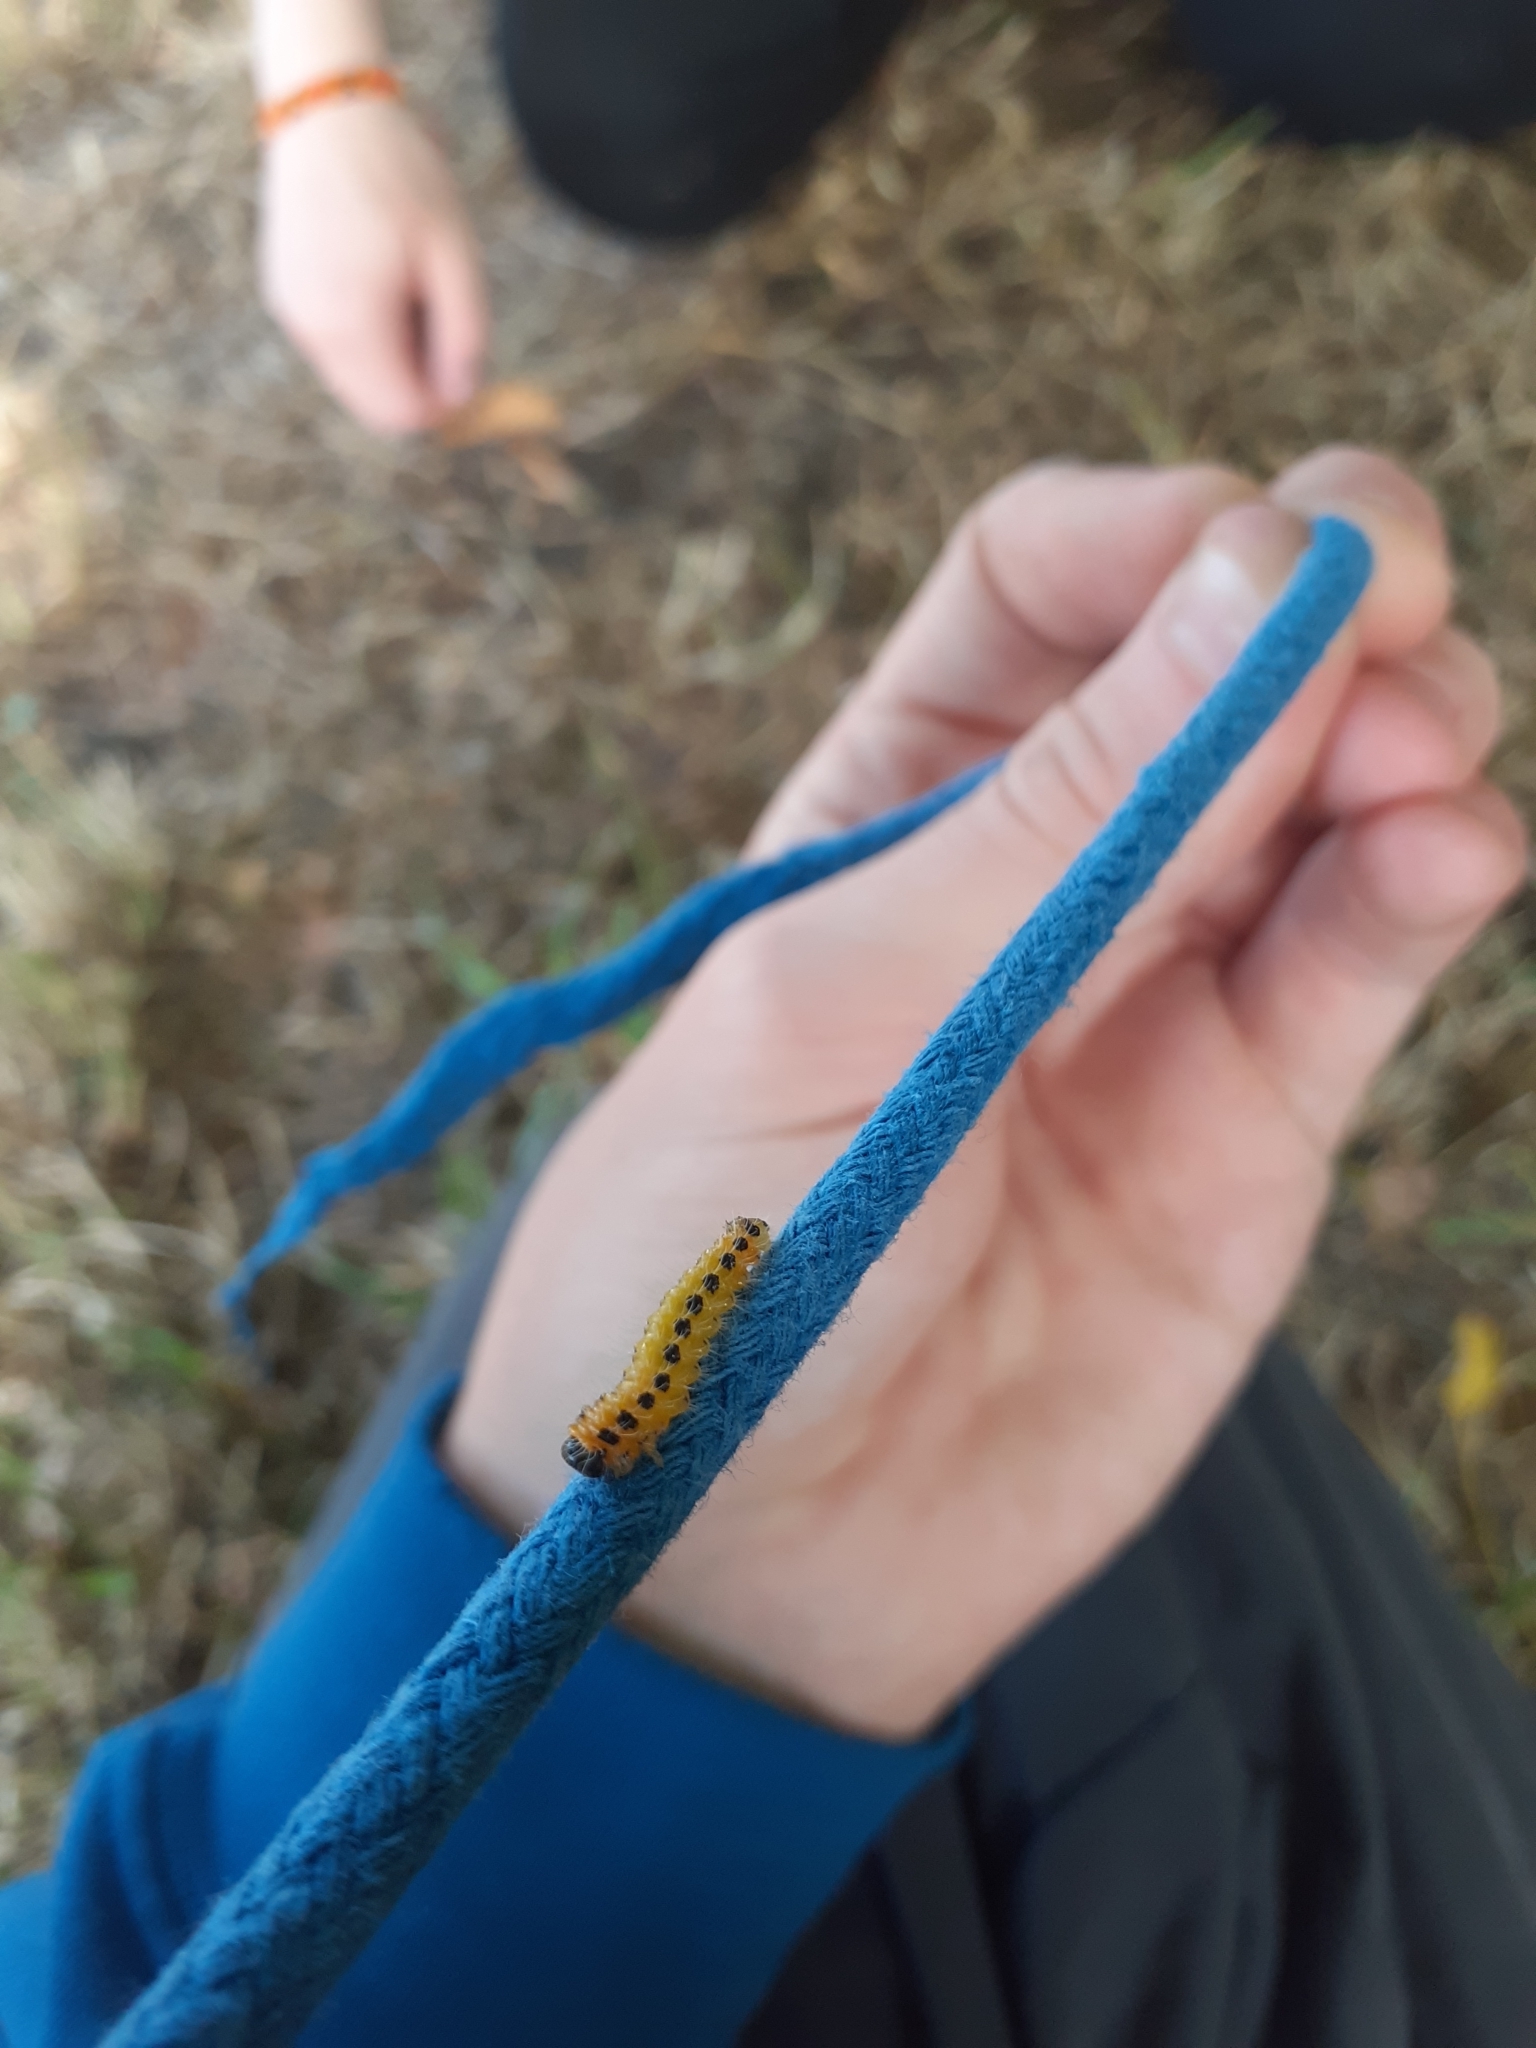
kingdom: Animalia
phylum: Arthropoda
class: Insecta
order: Hymenoptera
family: Tenthredinidae
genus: Cladius
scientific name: Cladius grandis
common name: Common sawfly
